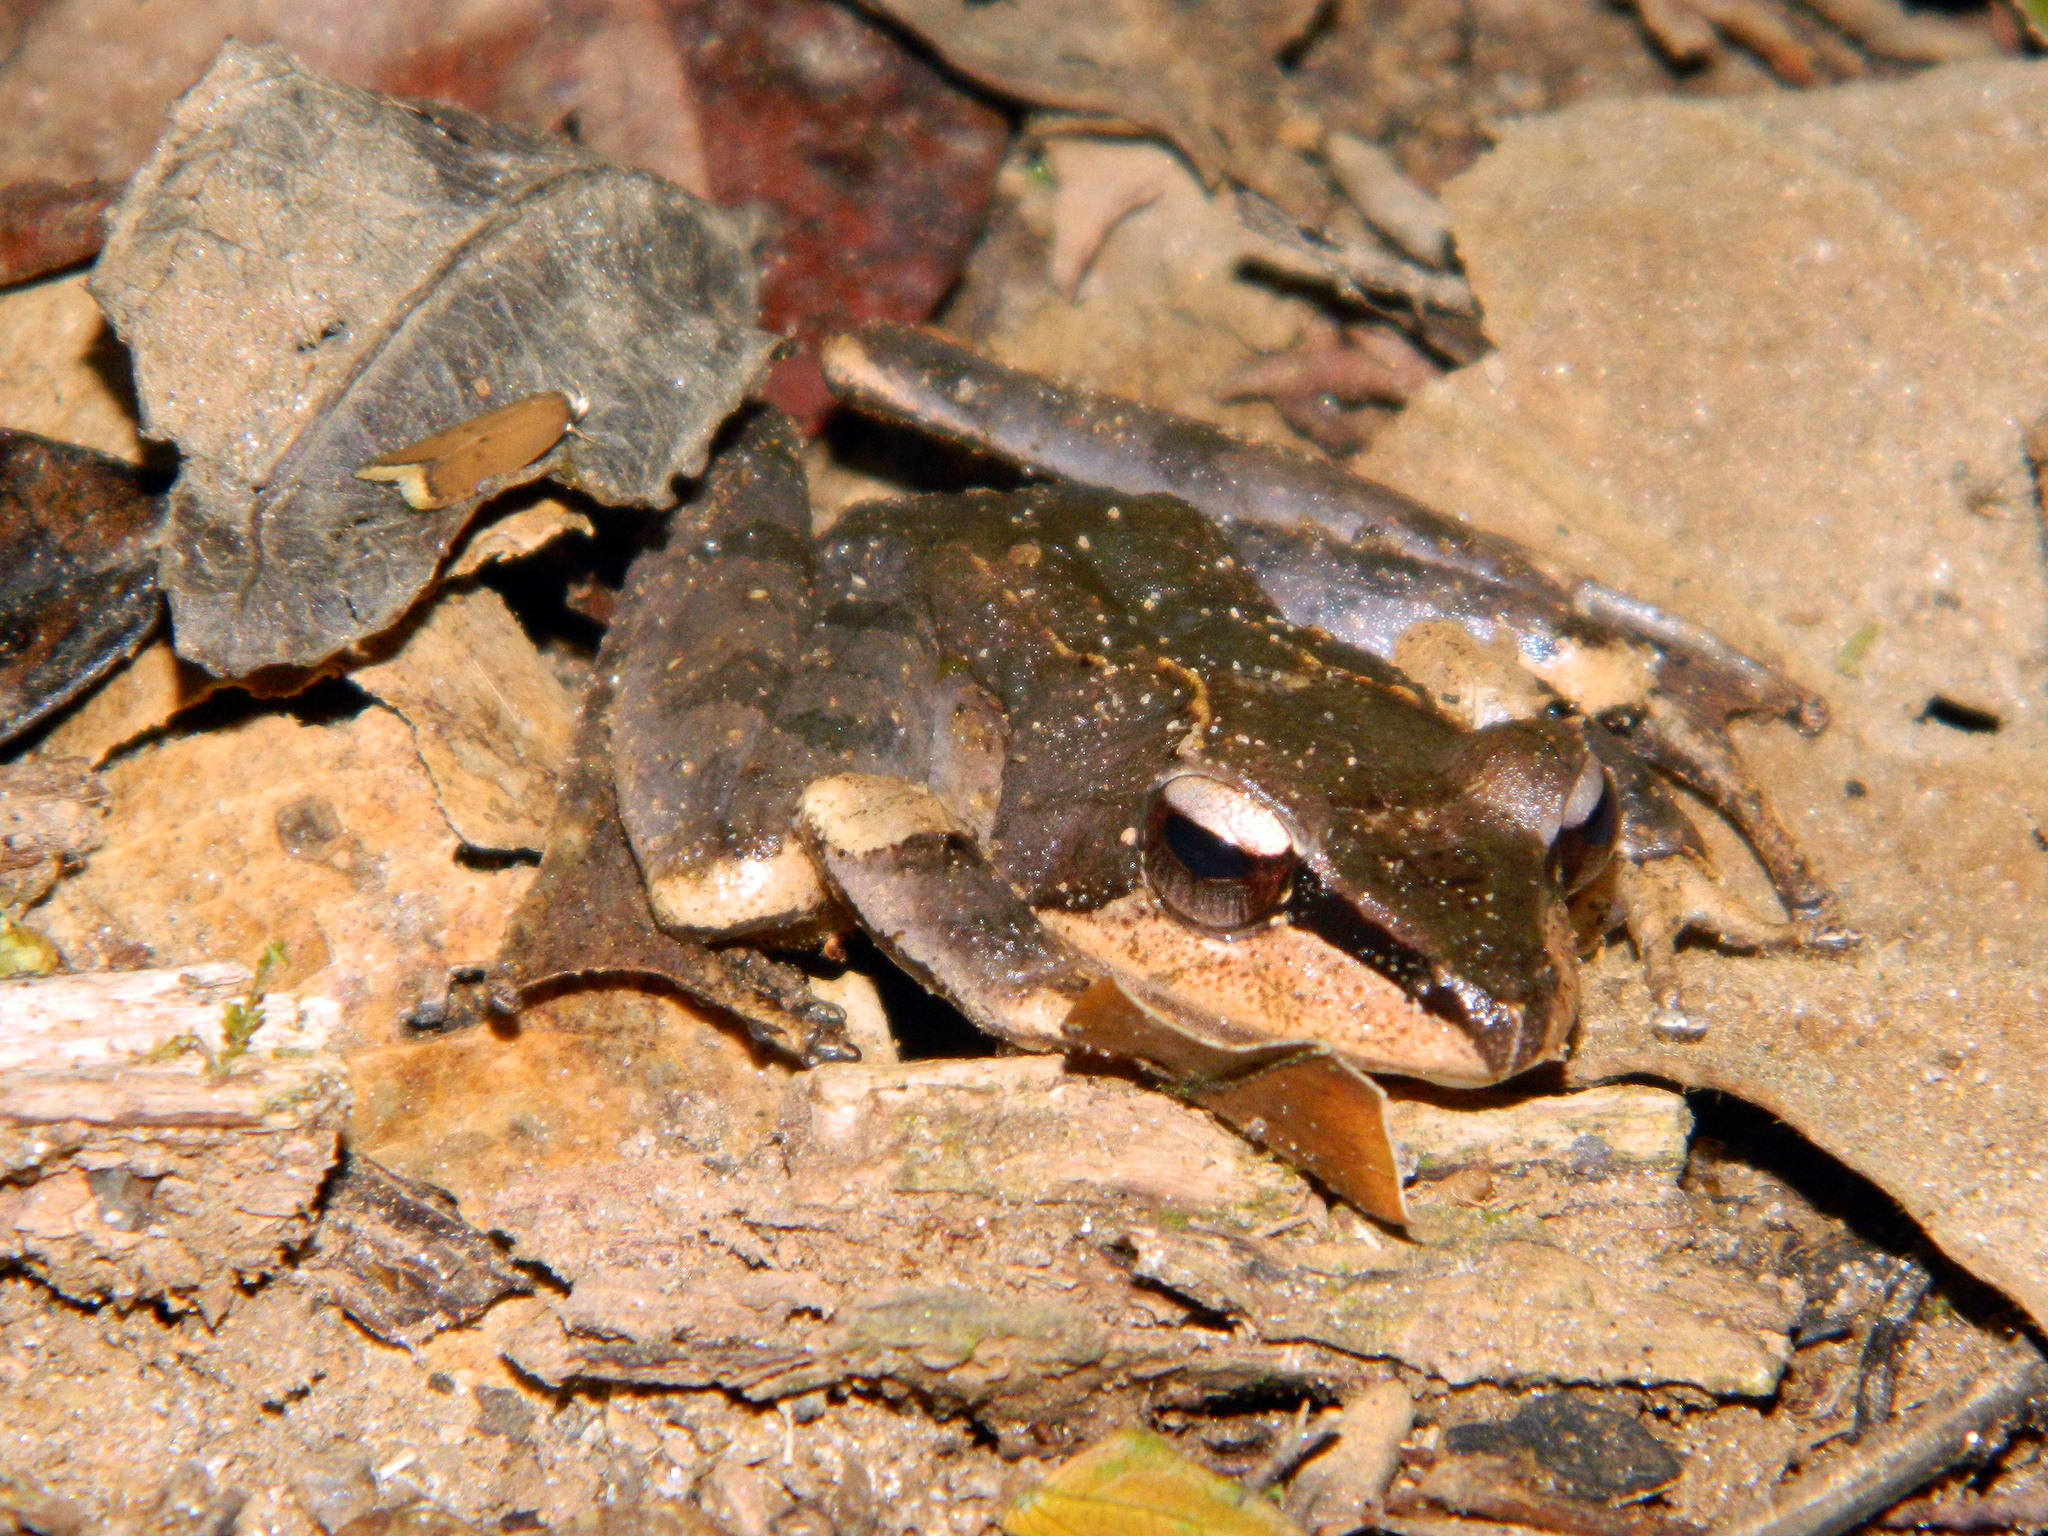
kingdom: Animalia
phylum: Chordata
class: Amphibia
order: Anura
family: Mantellidae
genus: Gephyromantis
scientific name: Gephyromantis plicifer
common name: Common madagascar frog
